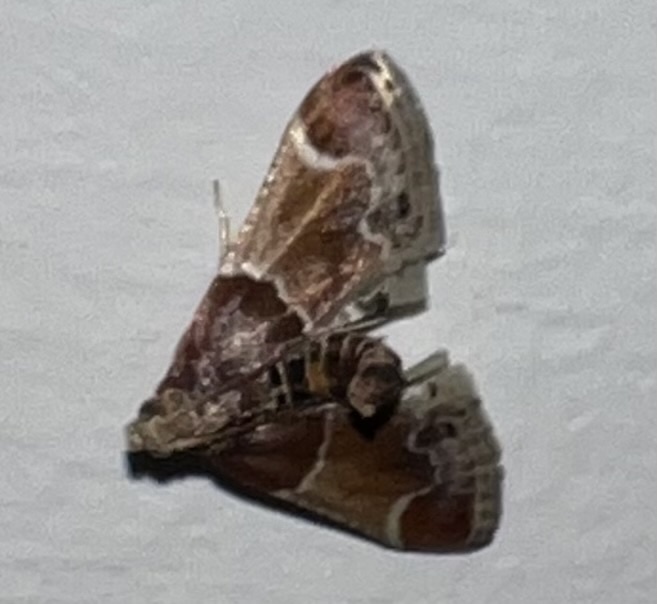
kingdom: Animalia
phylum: Arthropoda
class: Insecta
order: Lepidoptera
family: Pyralidae
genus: Pyralis
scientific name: Pyralis farinalis
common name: Meal moth
